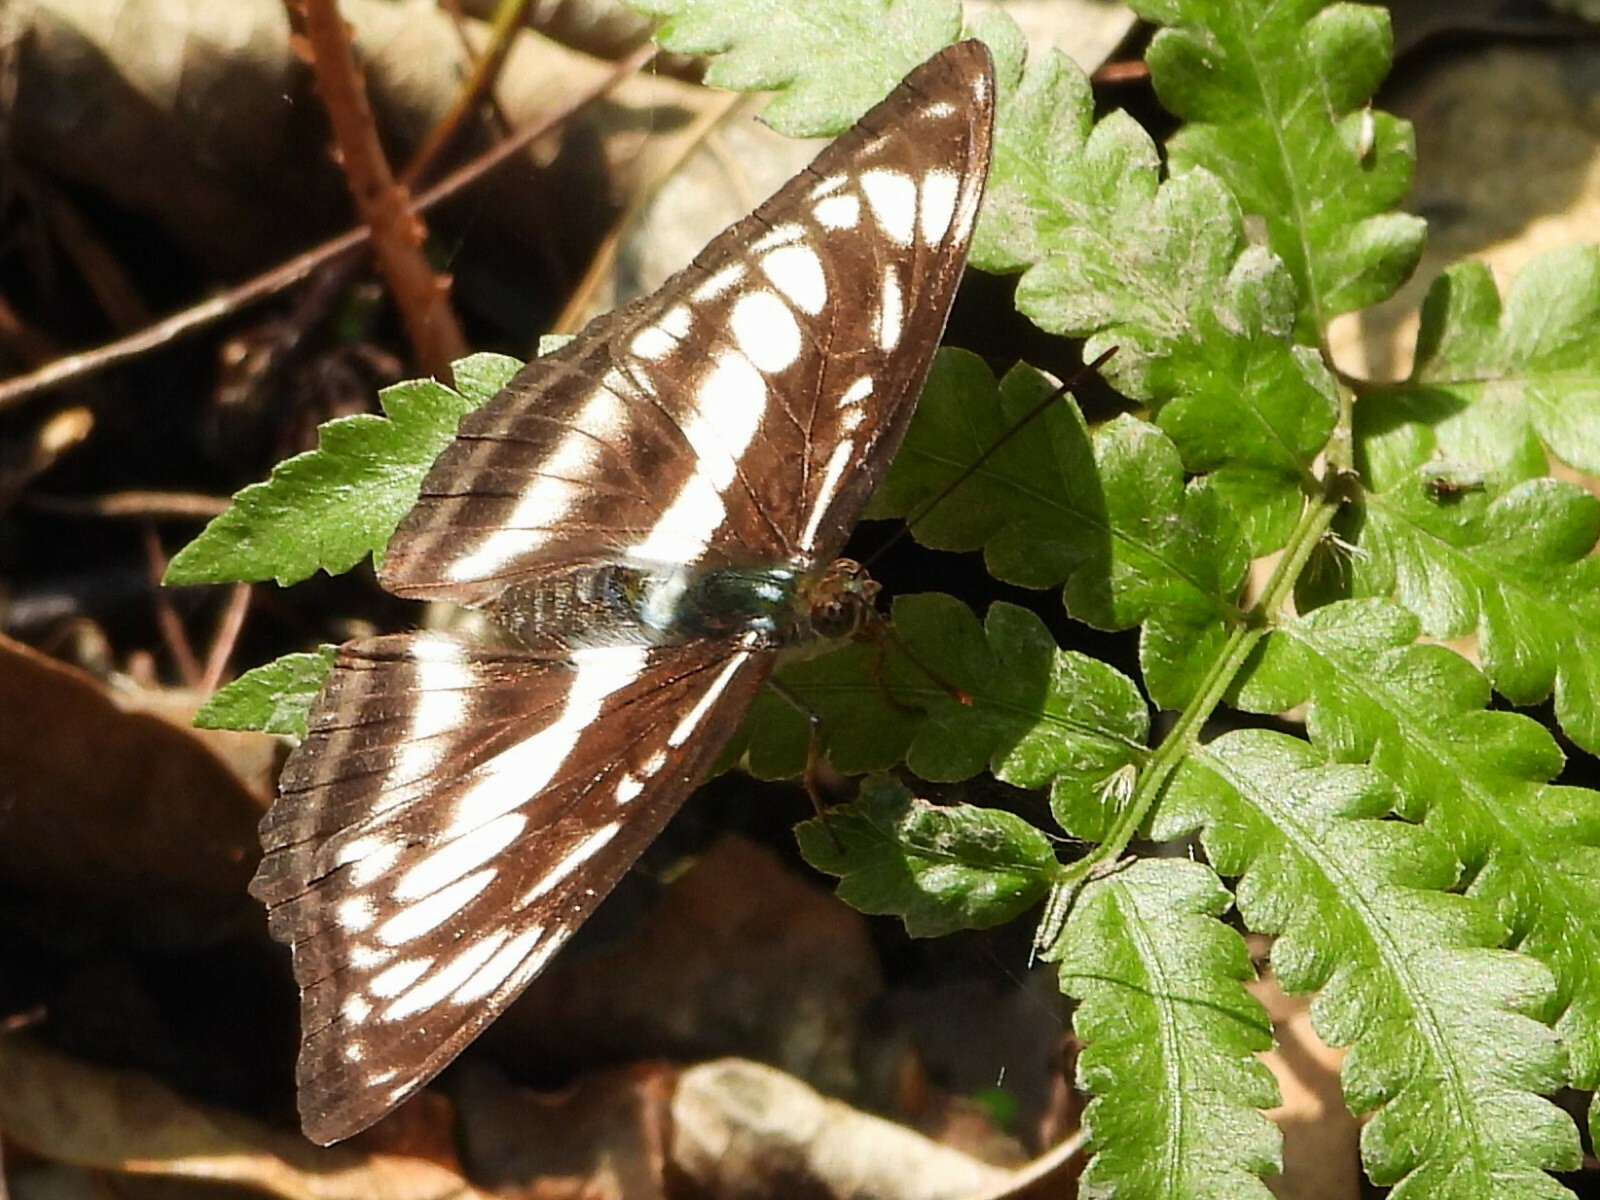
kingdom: Animalia
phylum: Arthropoda
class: Insecta
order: Lepidoptera
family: Nymphalidae
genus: Parathyma
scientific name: Parathyma selenophora
